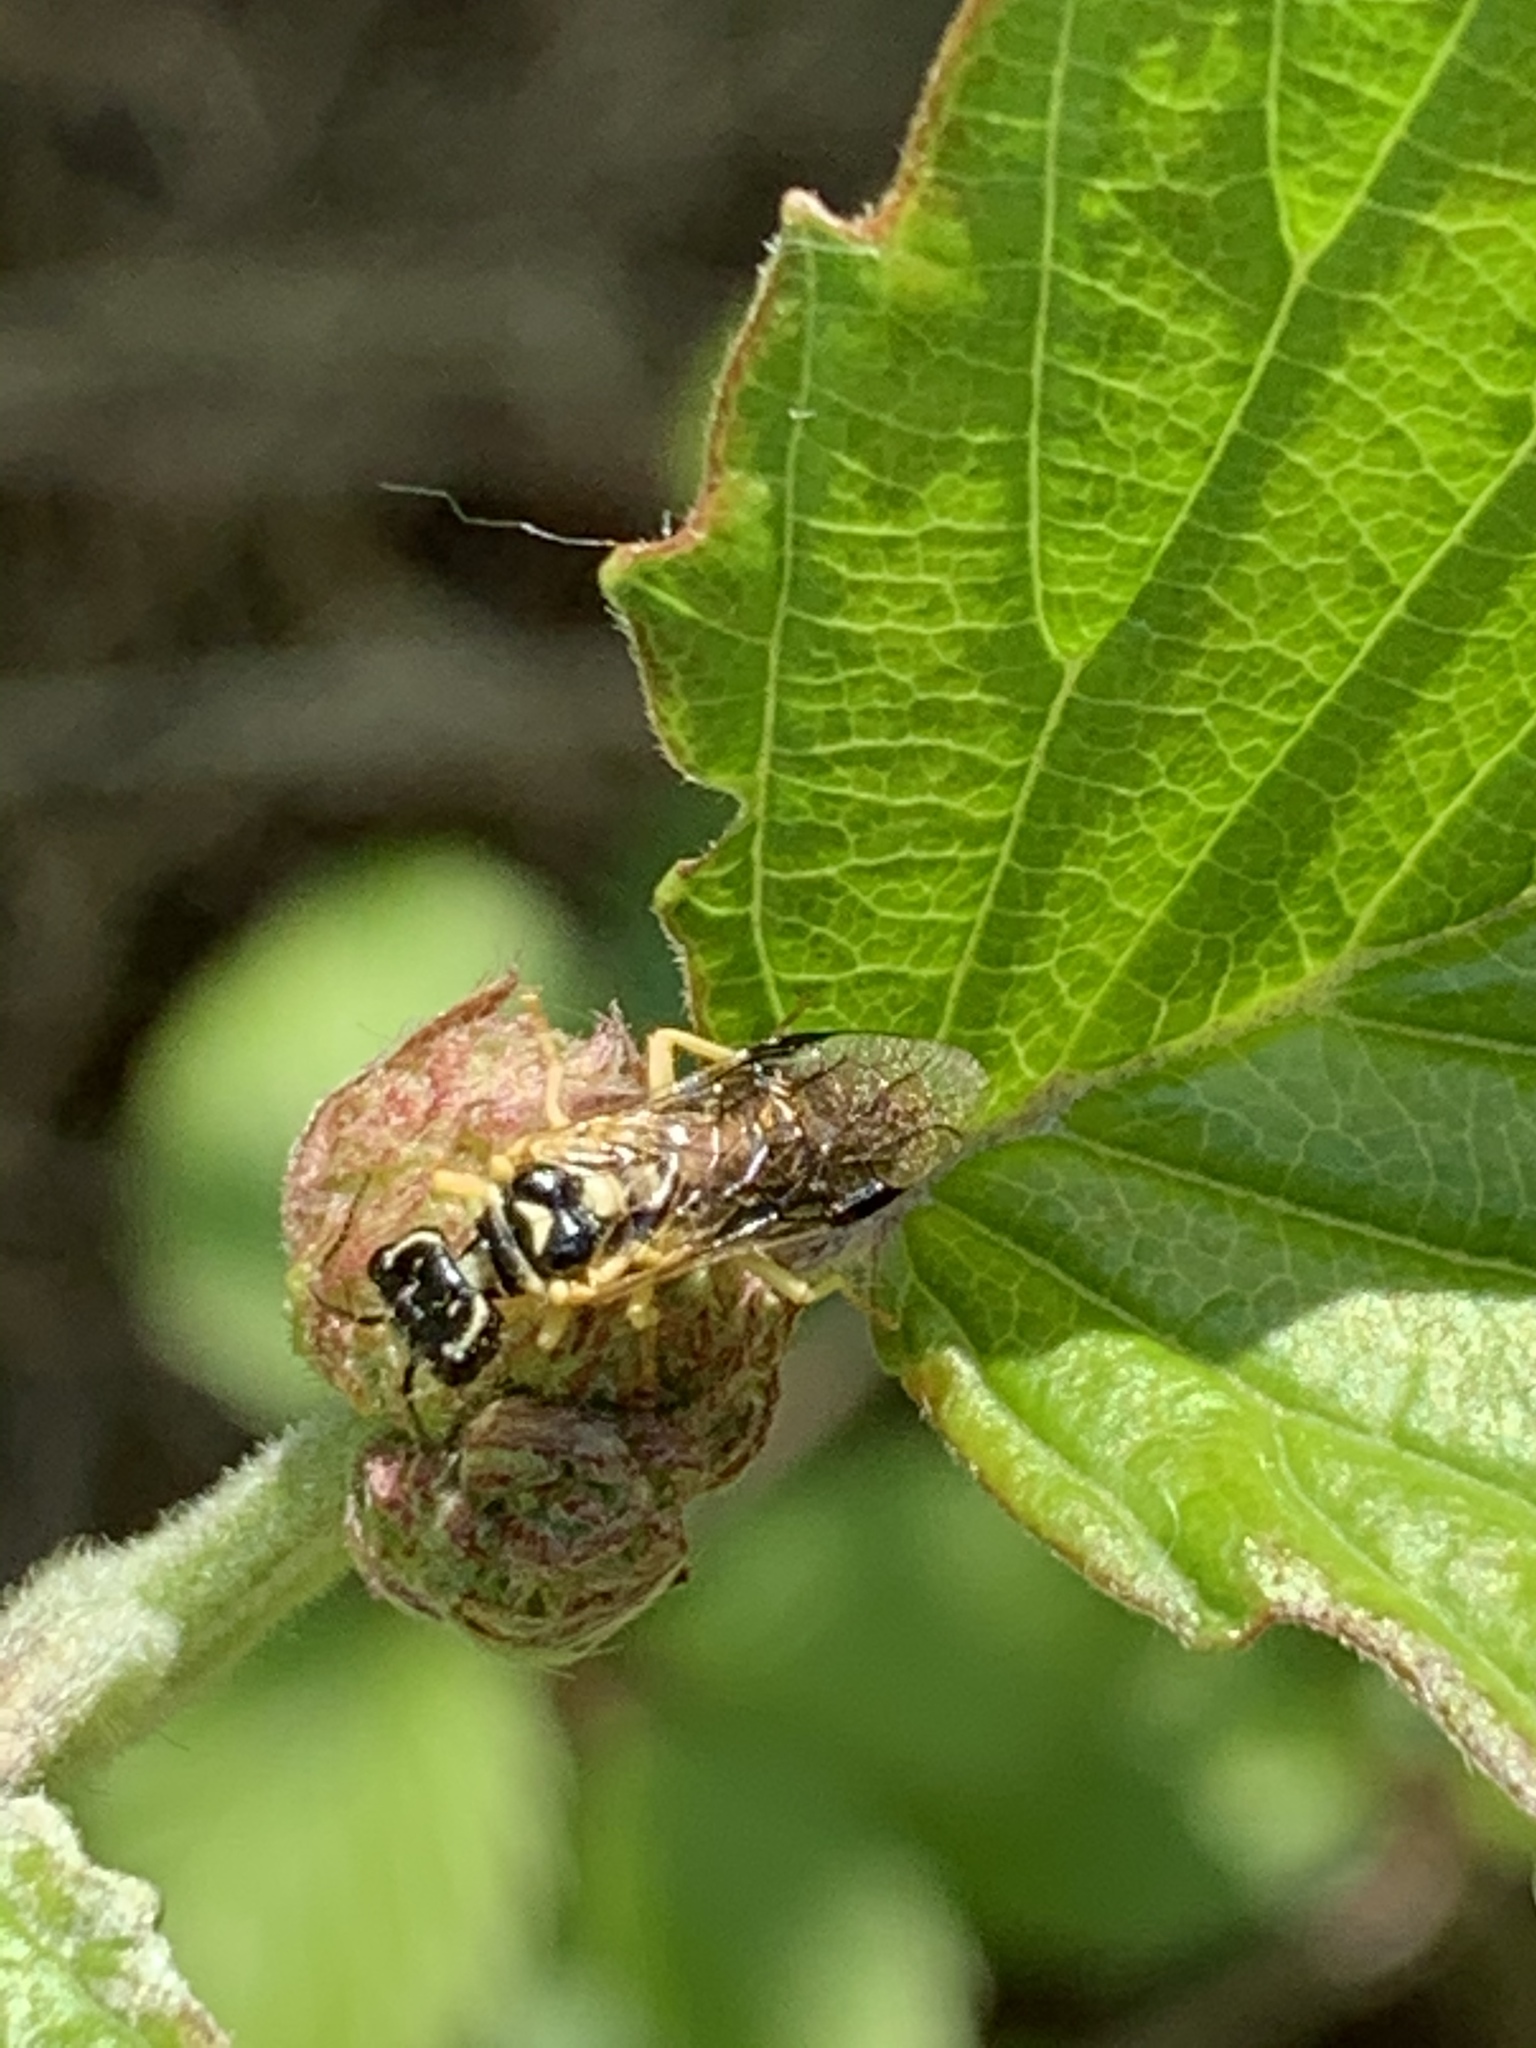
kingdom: Animalia
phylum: Arthropoda
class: Insecta
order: Hymenoptera
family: Pamphiliidae
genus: Onycholyda
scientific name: Onycholyda
